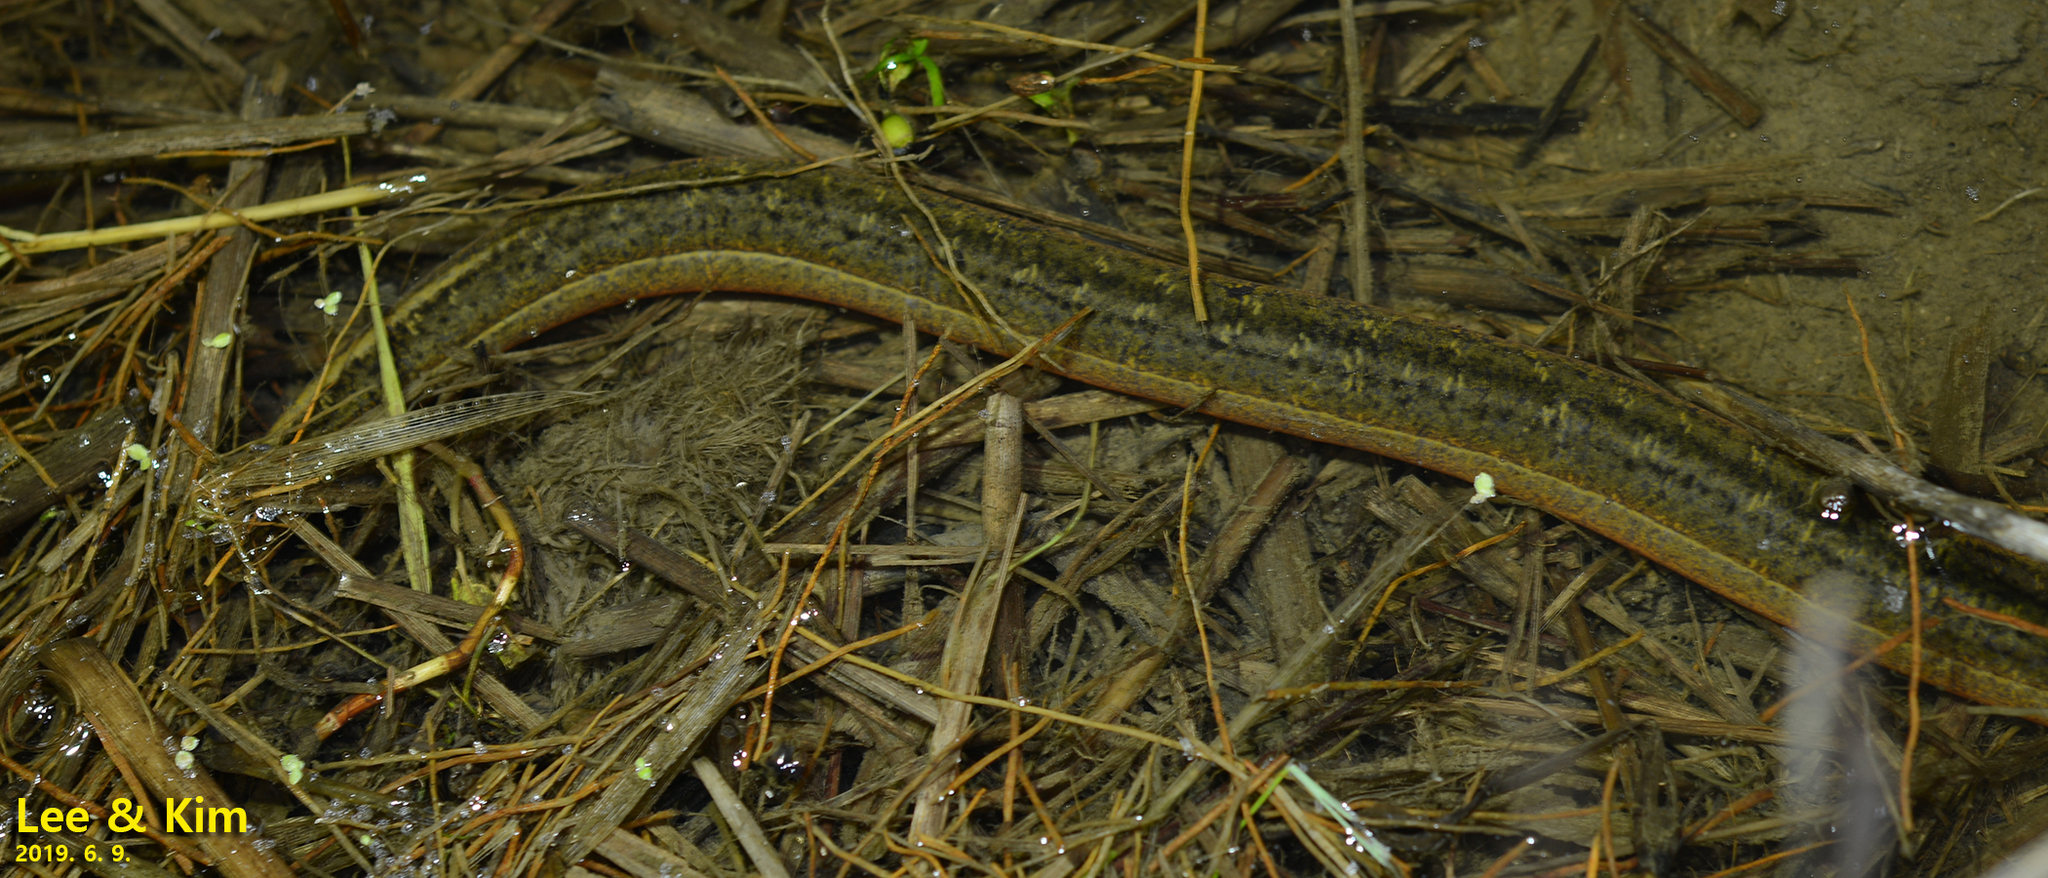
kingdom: Animalia
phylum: Chordata
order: Synbranchiformes
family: Synbranchidae
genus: Monopterus
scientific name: Monopterus albus
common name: Asian swamp eel
